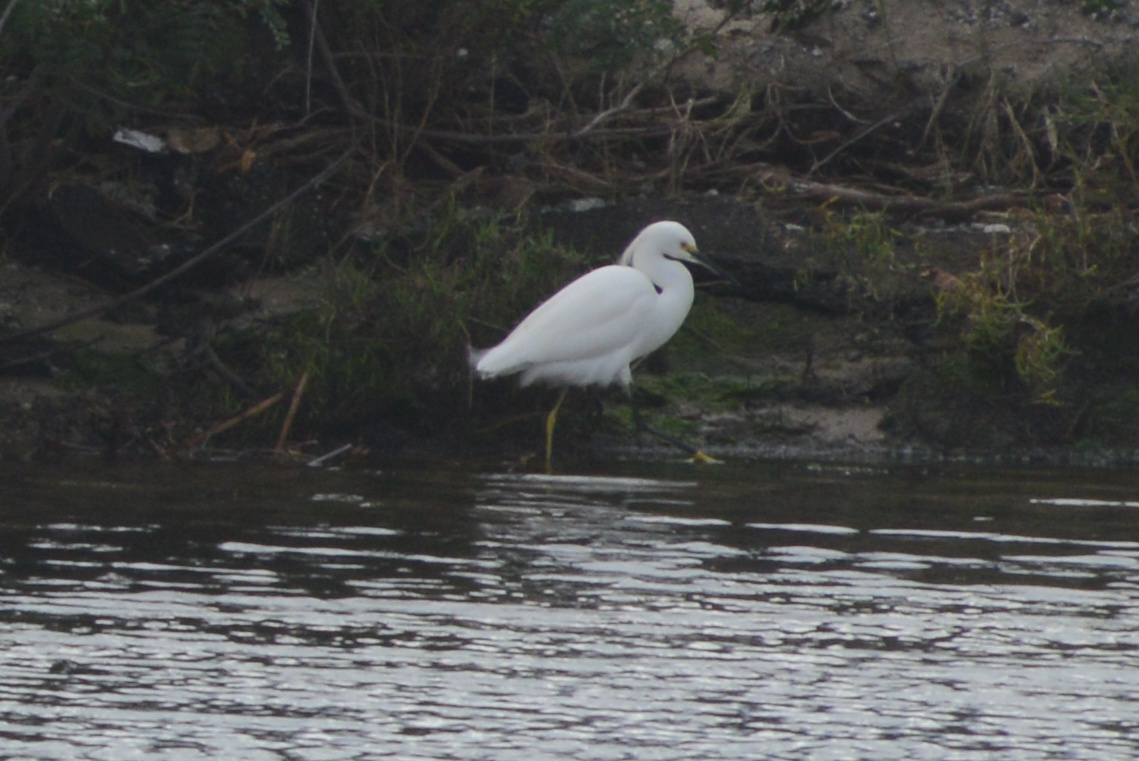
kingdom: Animalia
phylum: Chordata
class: Aves
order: Pelecaniformes
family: Ardeidae
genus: Egretta
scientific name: Egretta thula
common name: Snowy egret
